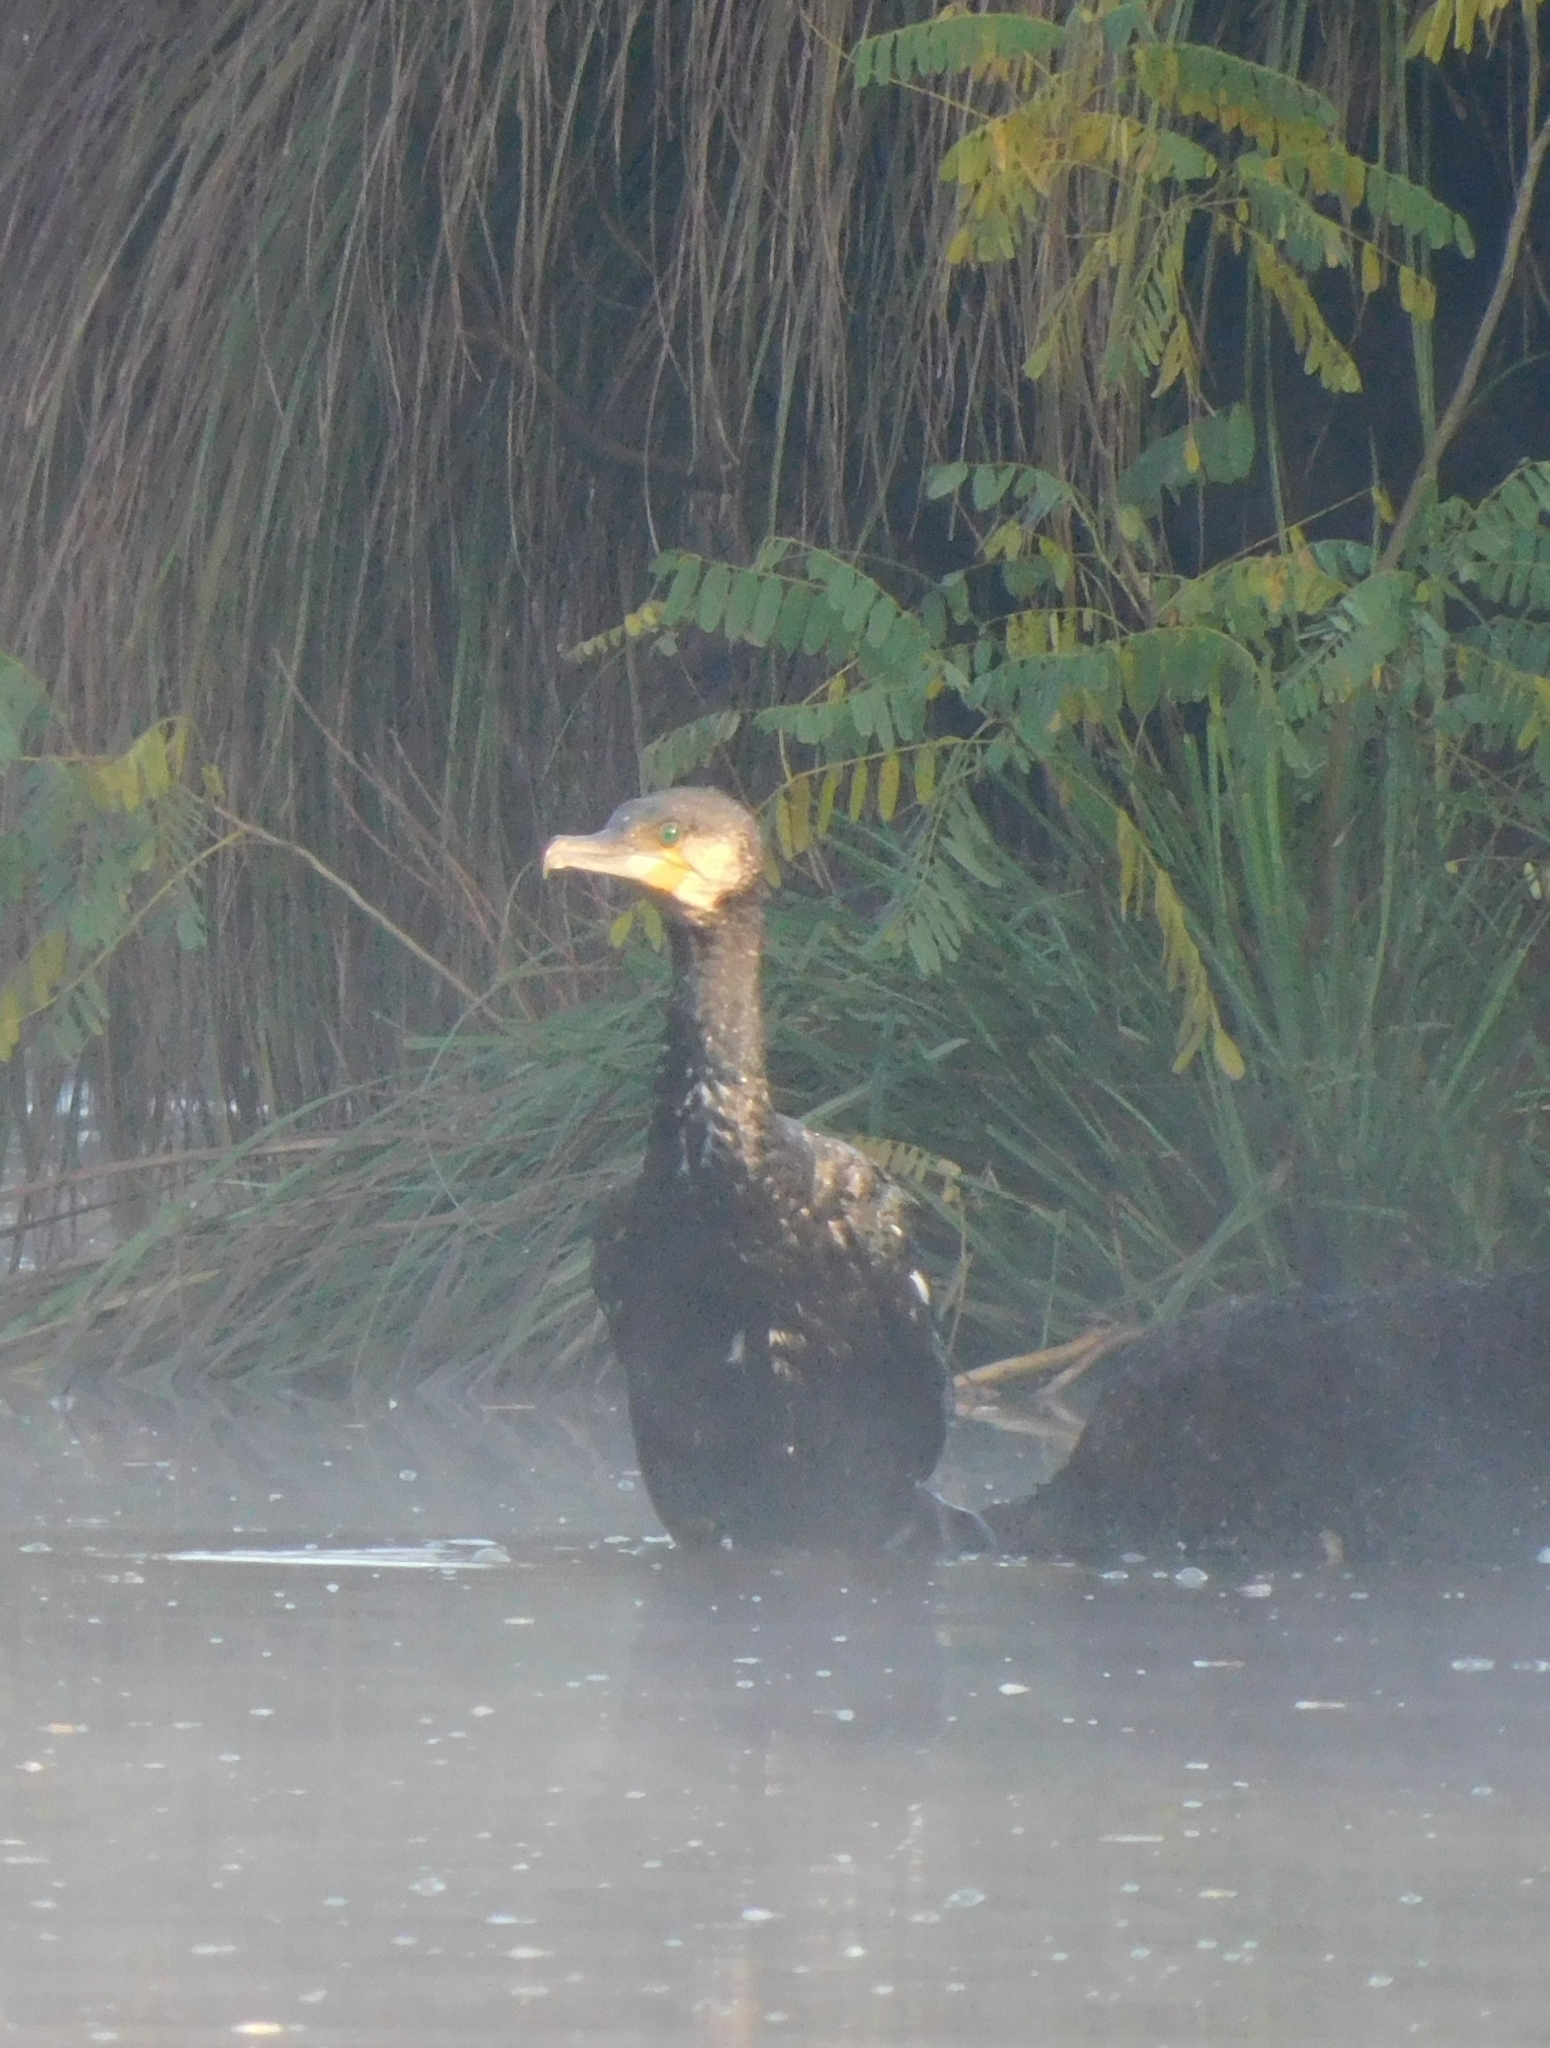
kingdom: Animalia
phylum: Chordata
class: Aves
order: Suliformes
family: Phalacrocoracidae
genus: Phalacrocorax
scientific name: Phalacrocorax carbo
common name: Great cormorant
